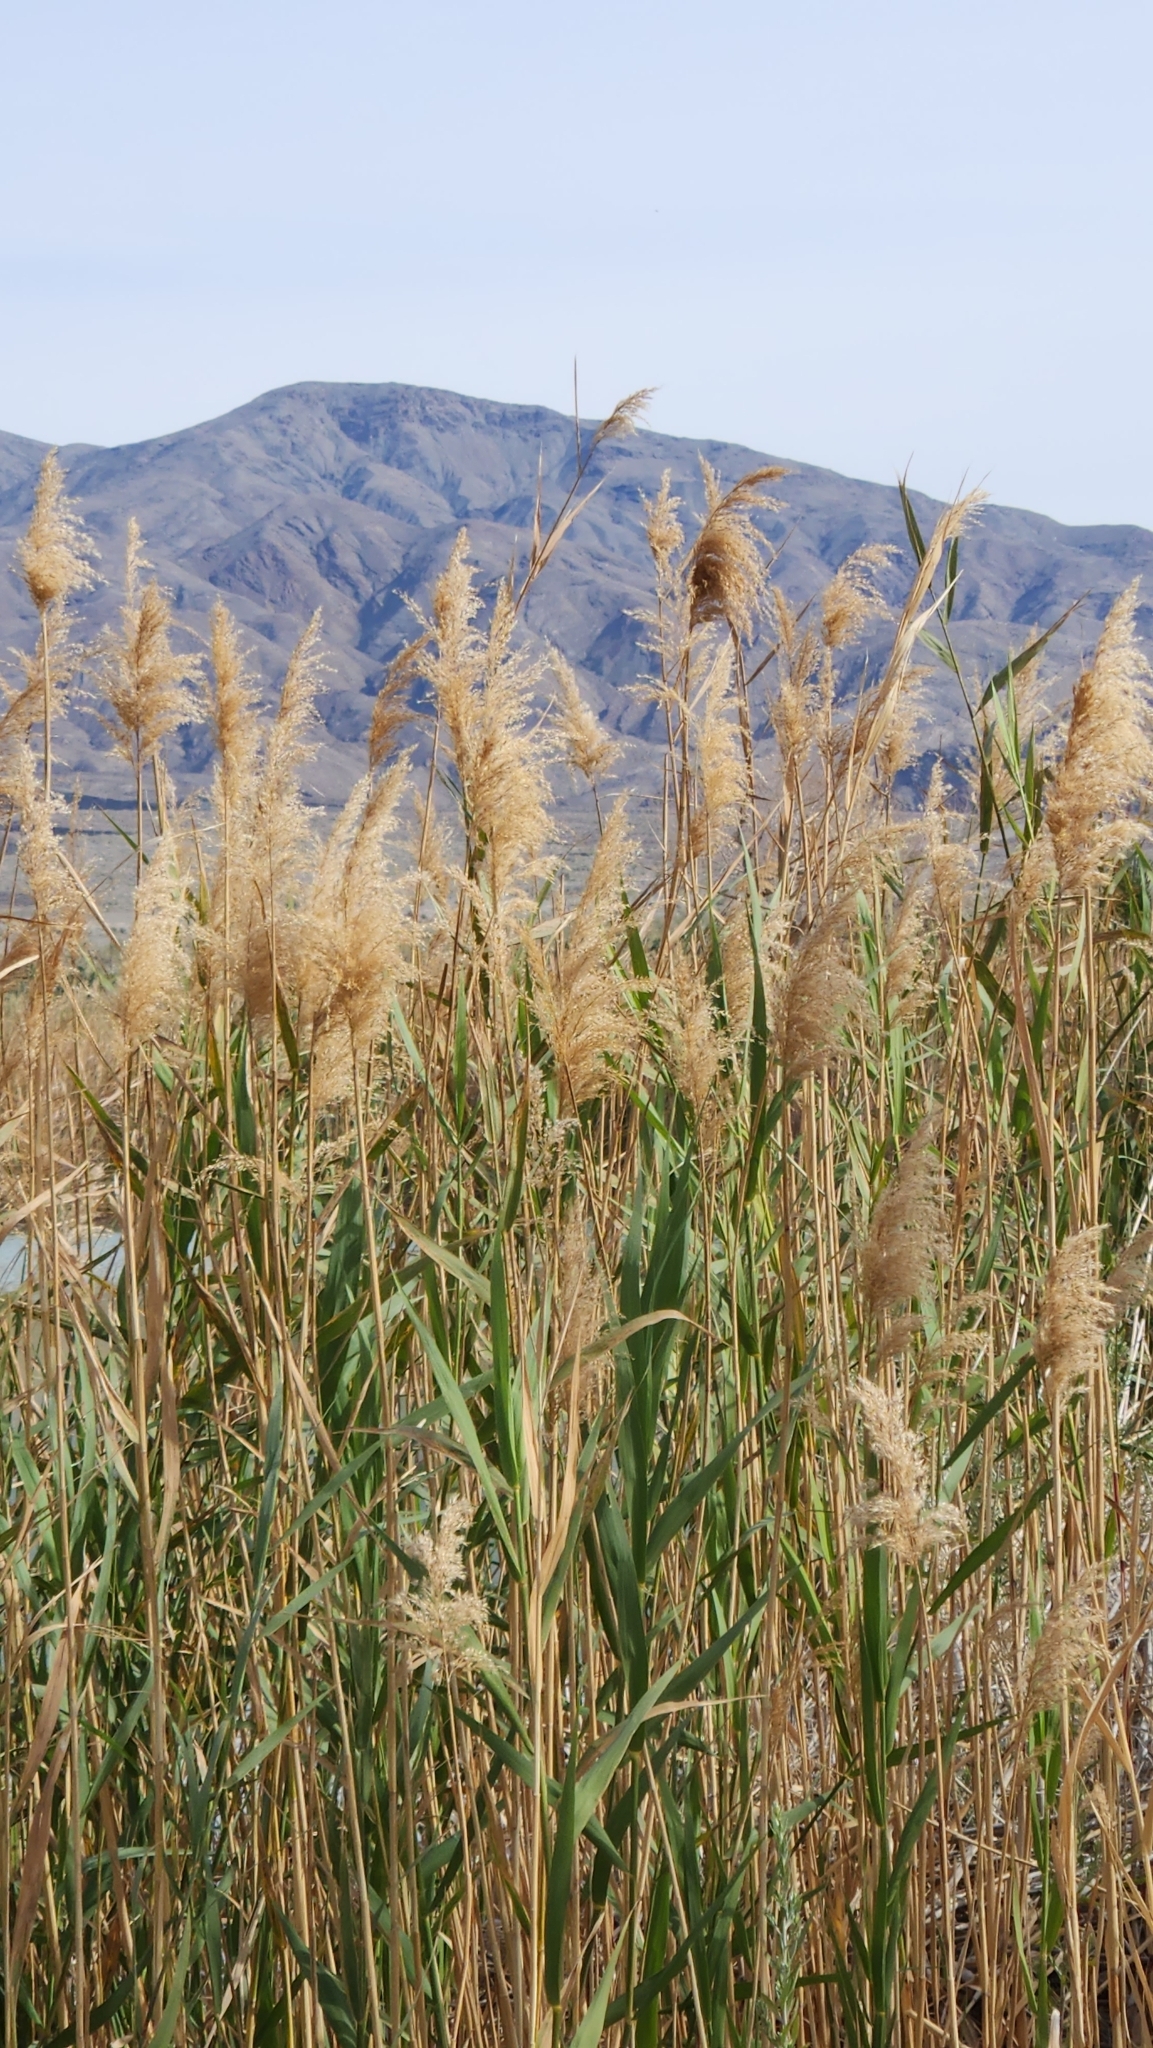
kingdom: Plantae
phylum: Tracheophyta
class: Liliopsida
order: Poales
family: Poaceae
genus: Phragmites
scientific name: Phragmites australis
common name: Common reed
